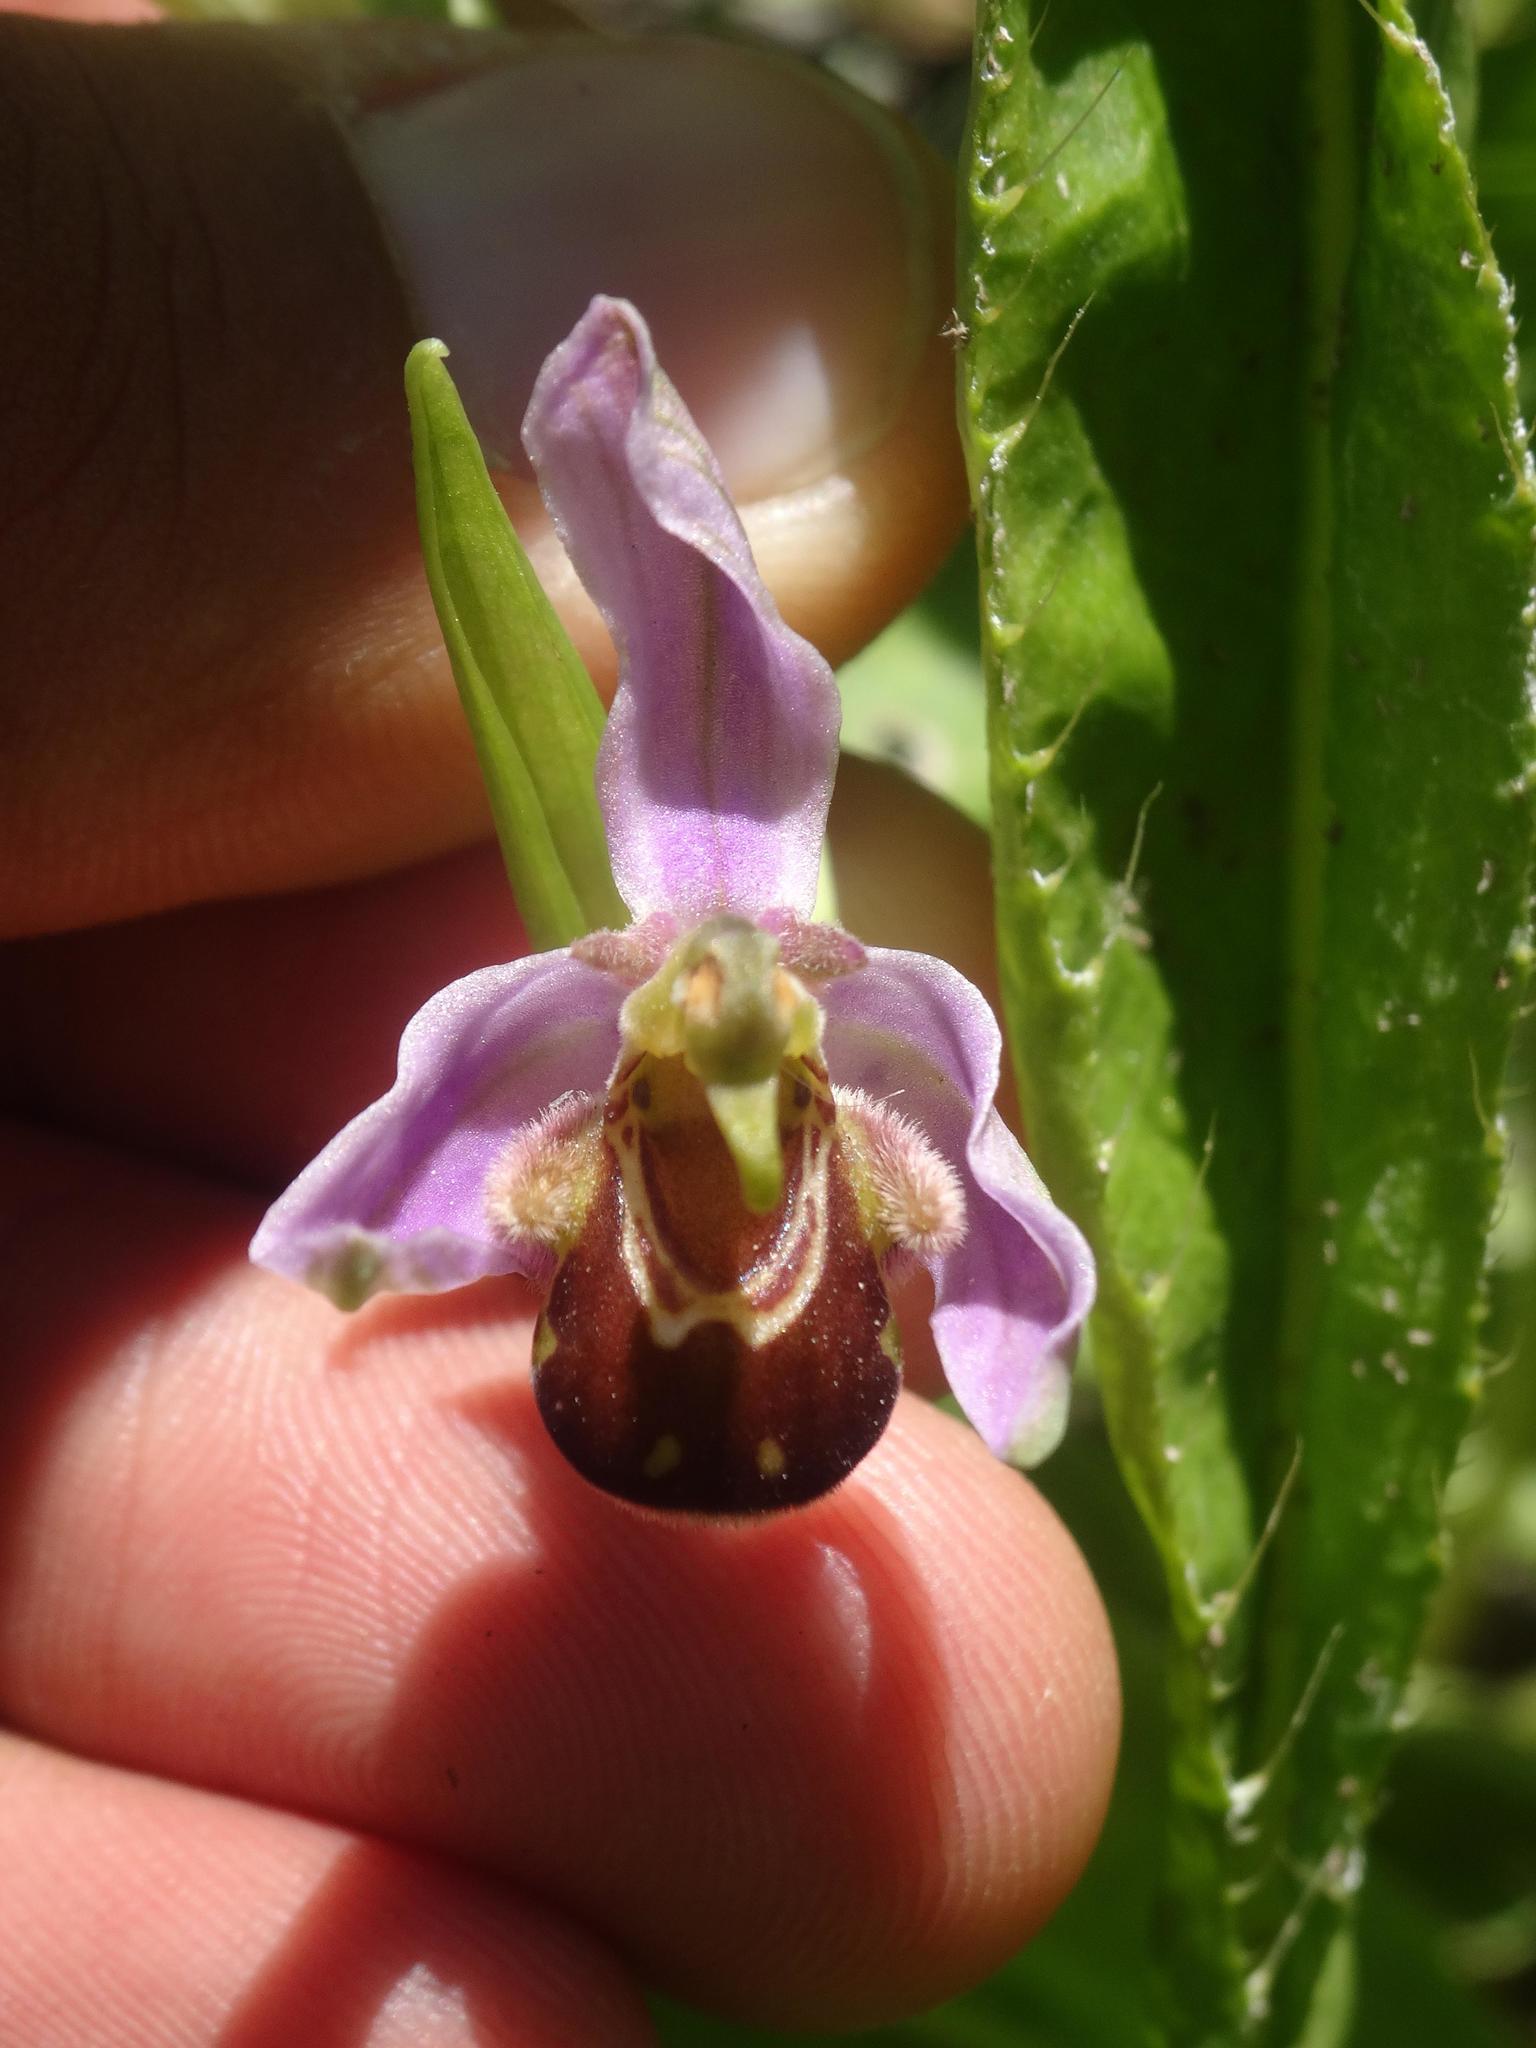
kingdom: Plantae
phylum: Tracheophyta
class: Liliopsida
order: Asparagales
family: Orchidaceae
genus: Ophrys
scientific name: Ophrys apifera
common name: Bee orchid
